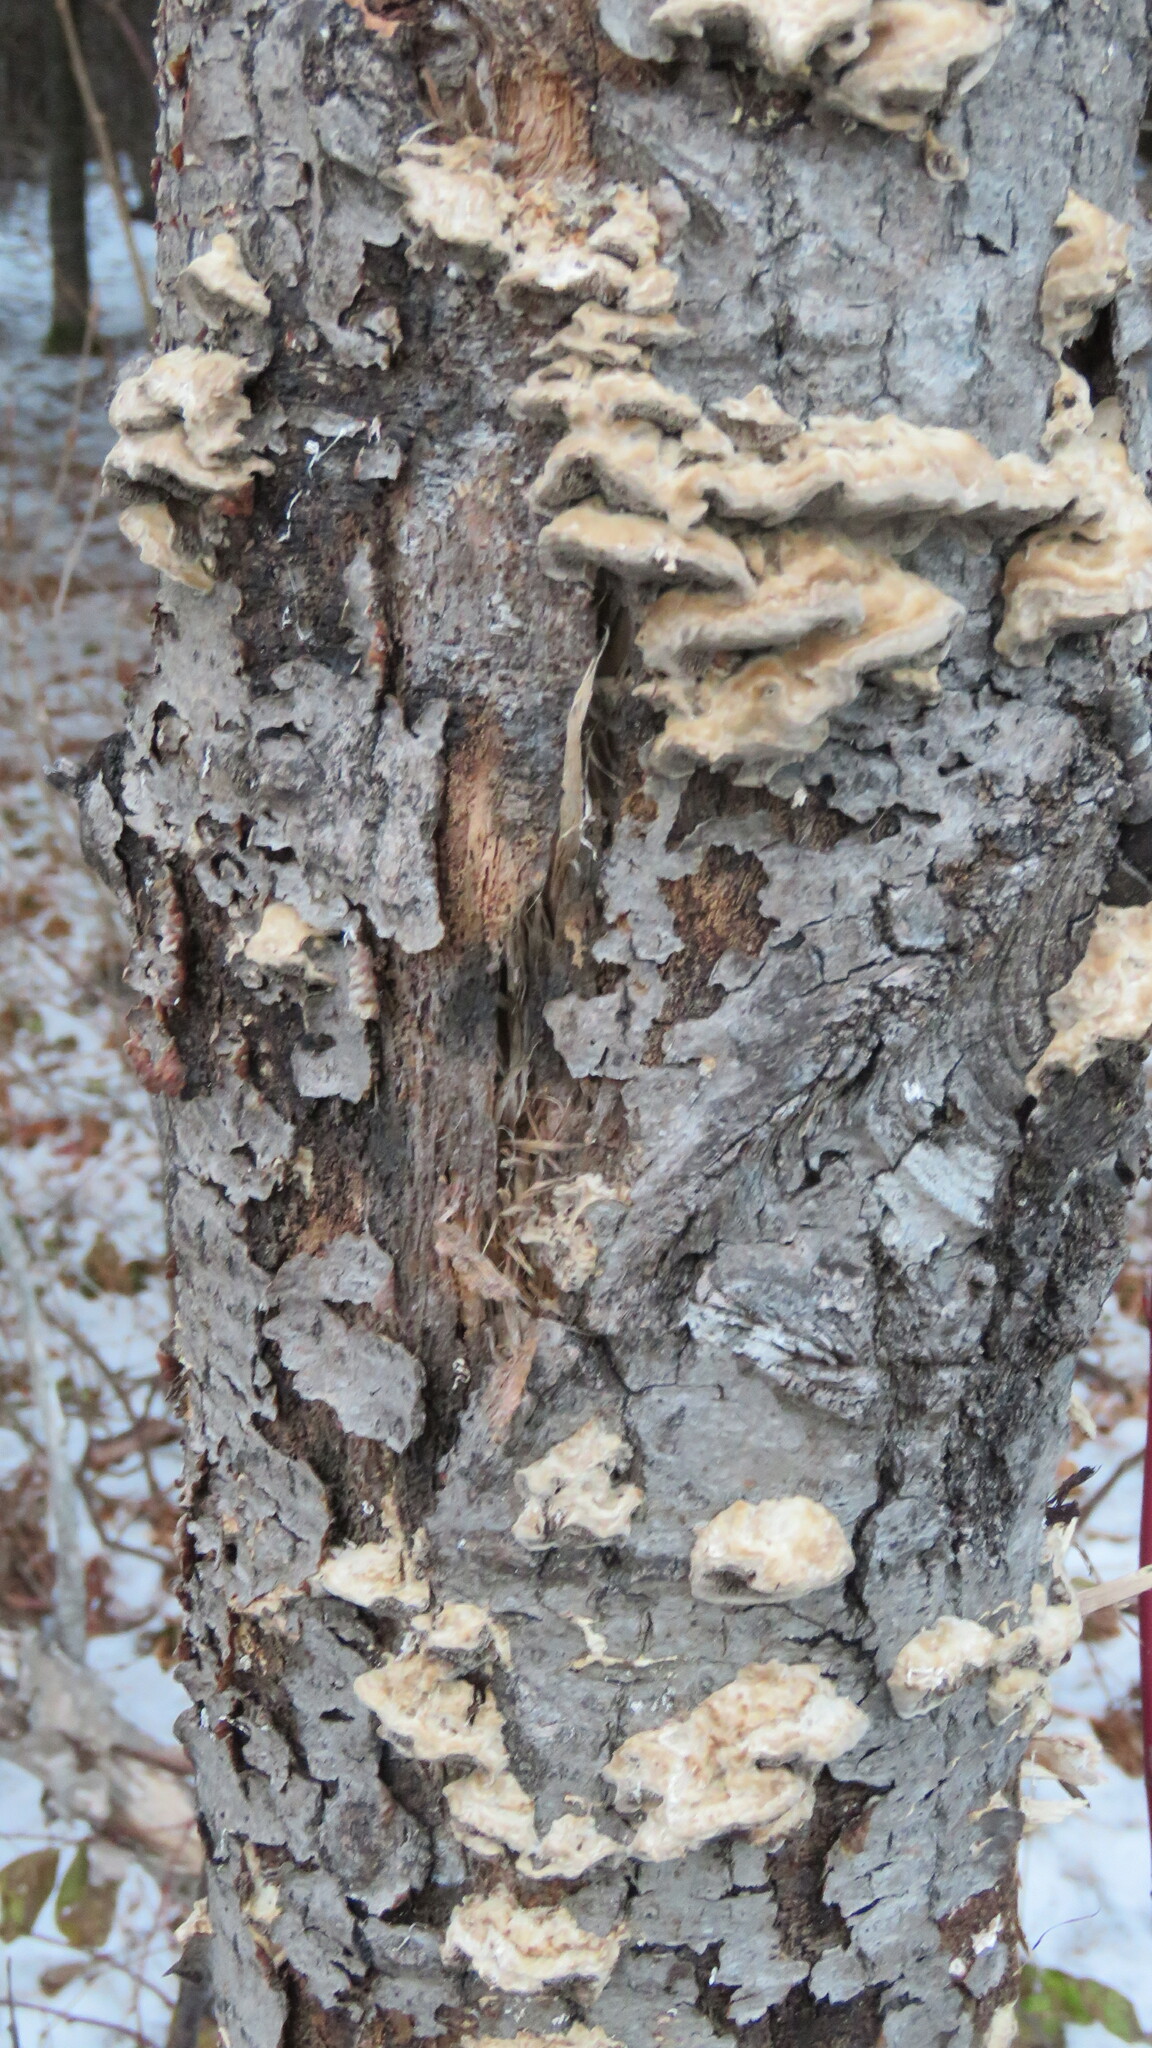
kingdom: Fungi
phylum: Basidiomycota
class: Agaricomycetes
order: Polyporales
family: Irpicaceae
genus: Trametopsis
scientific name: Trametopsis cervina
